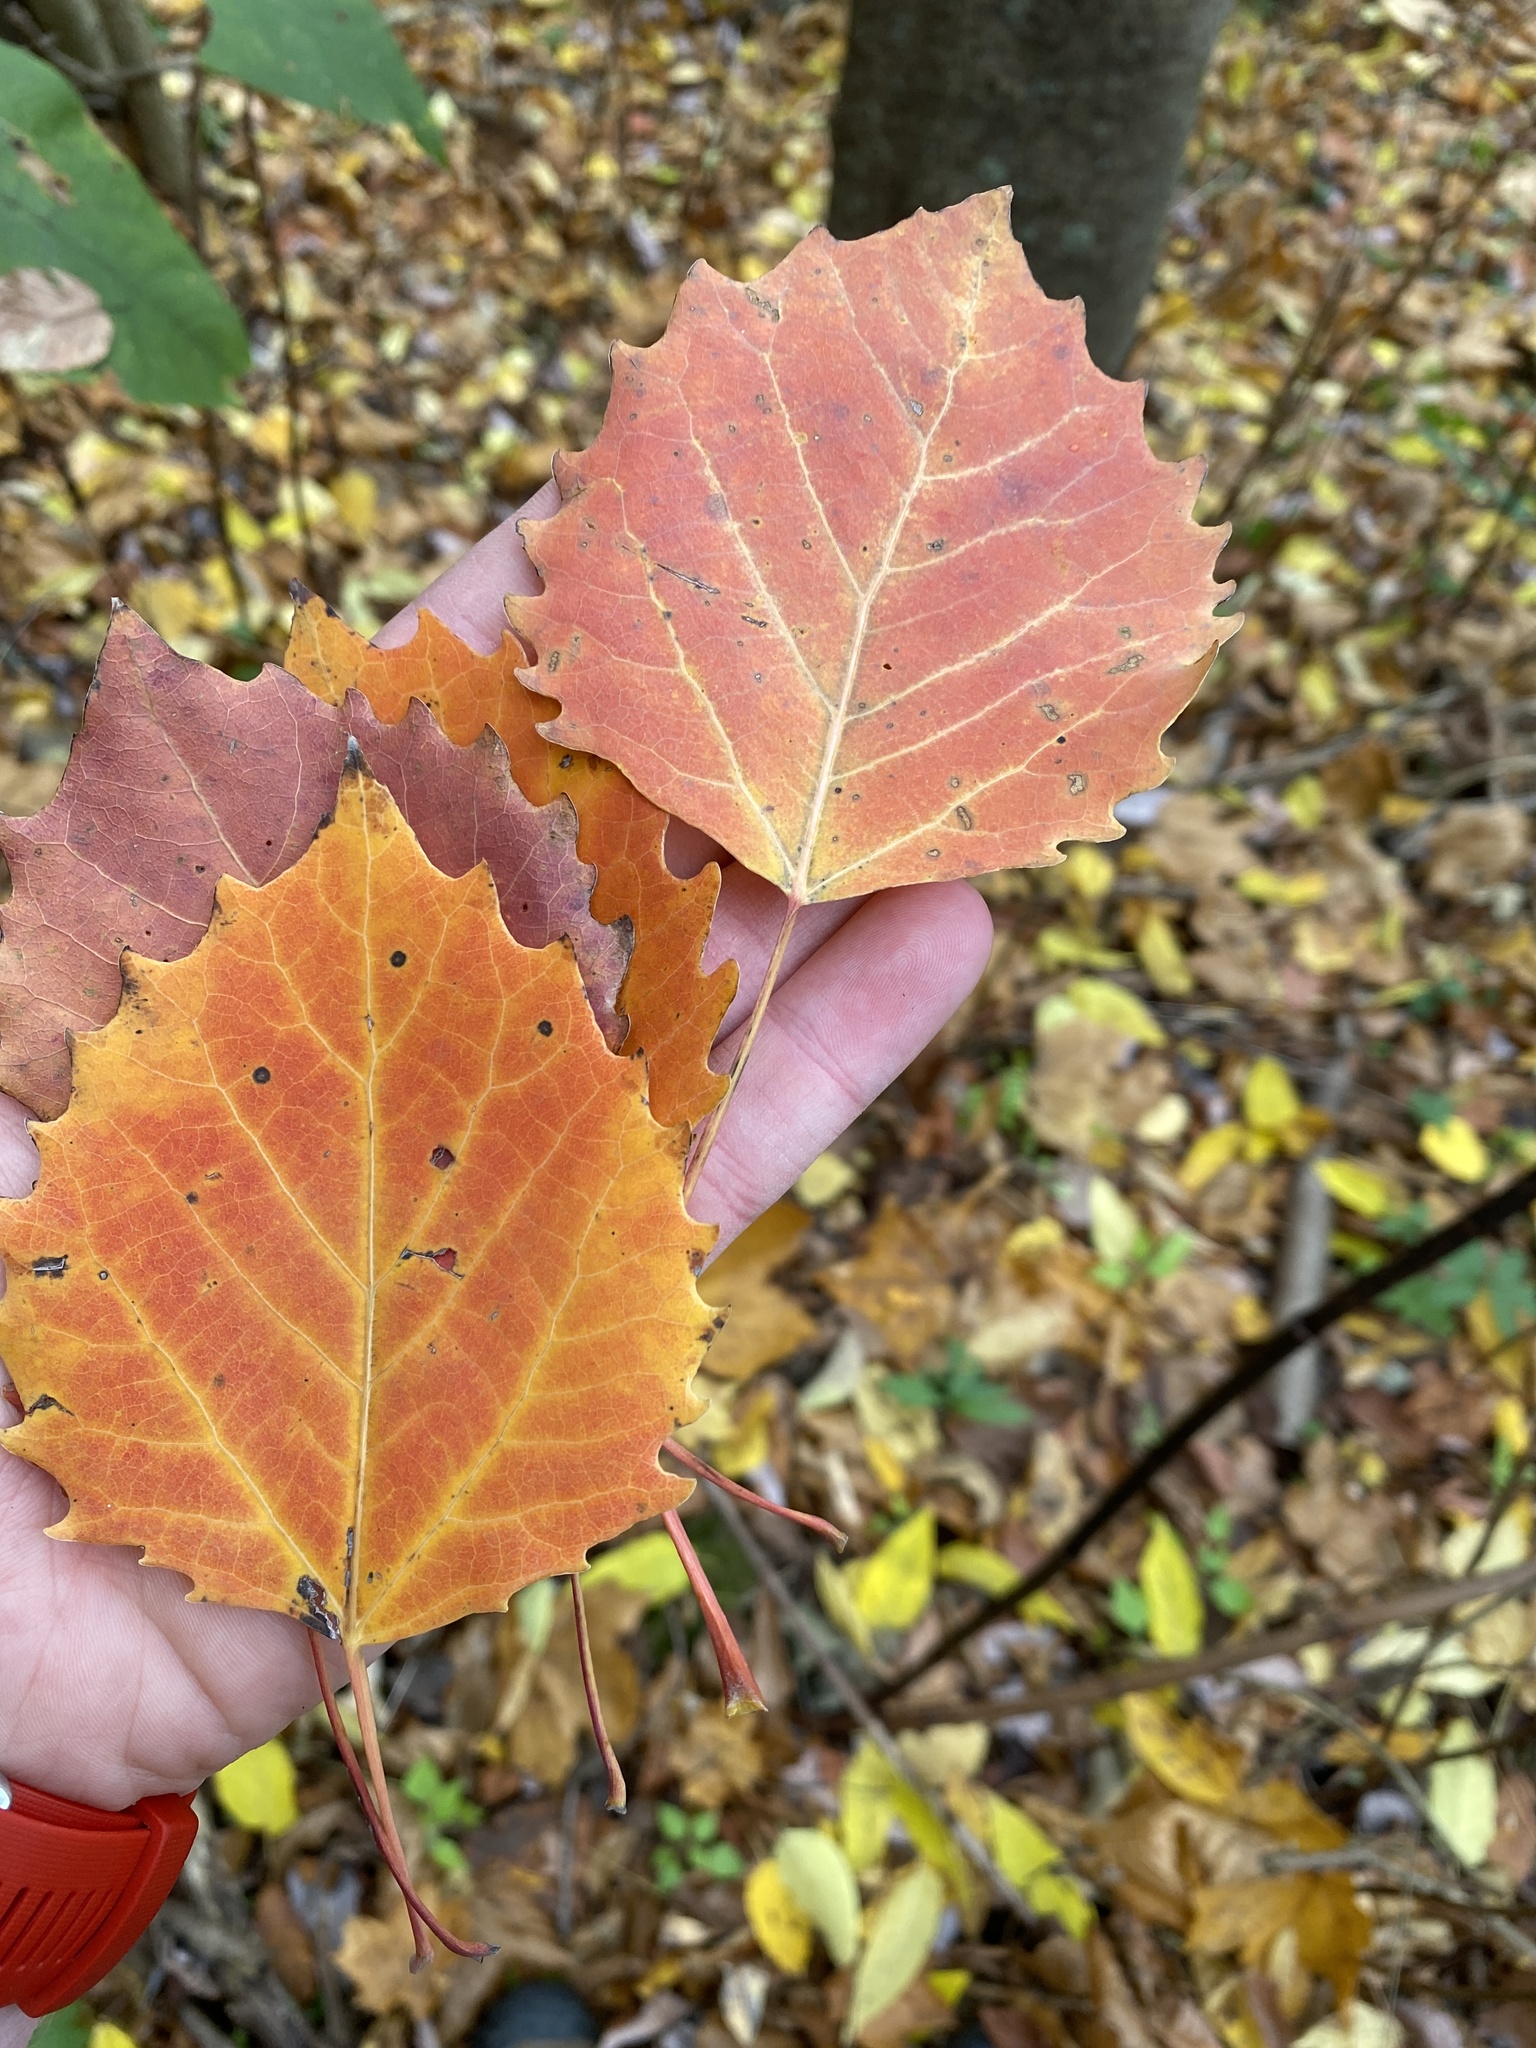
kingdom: Plantae
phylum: Tracheophyta
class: Magnoliopsida
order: Malpighiales
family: Salicaceae
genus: Populus
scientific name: Populus grandidentata
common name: Bigtooth aspen
